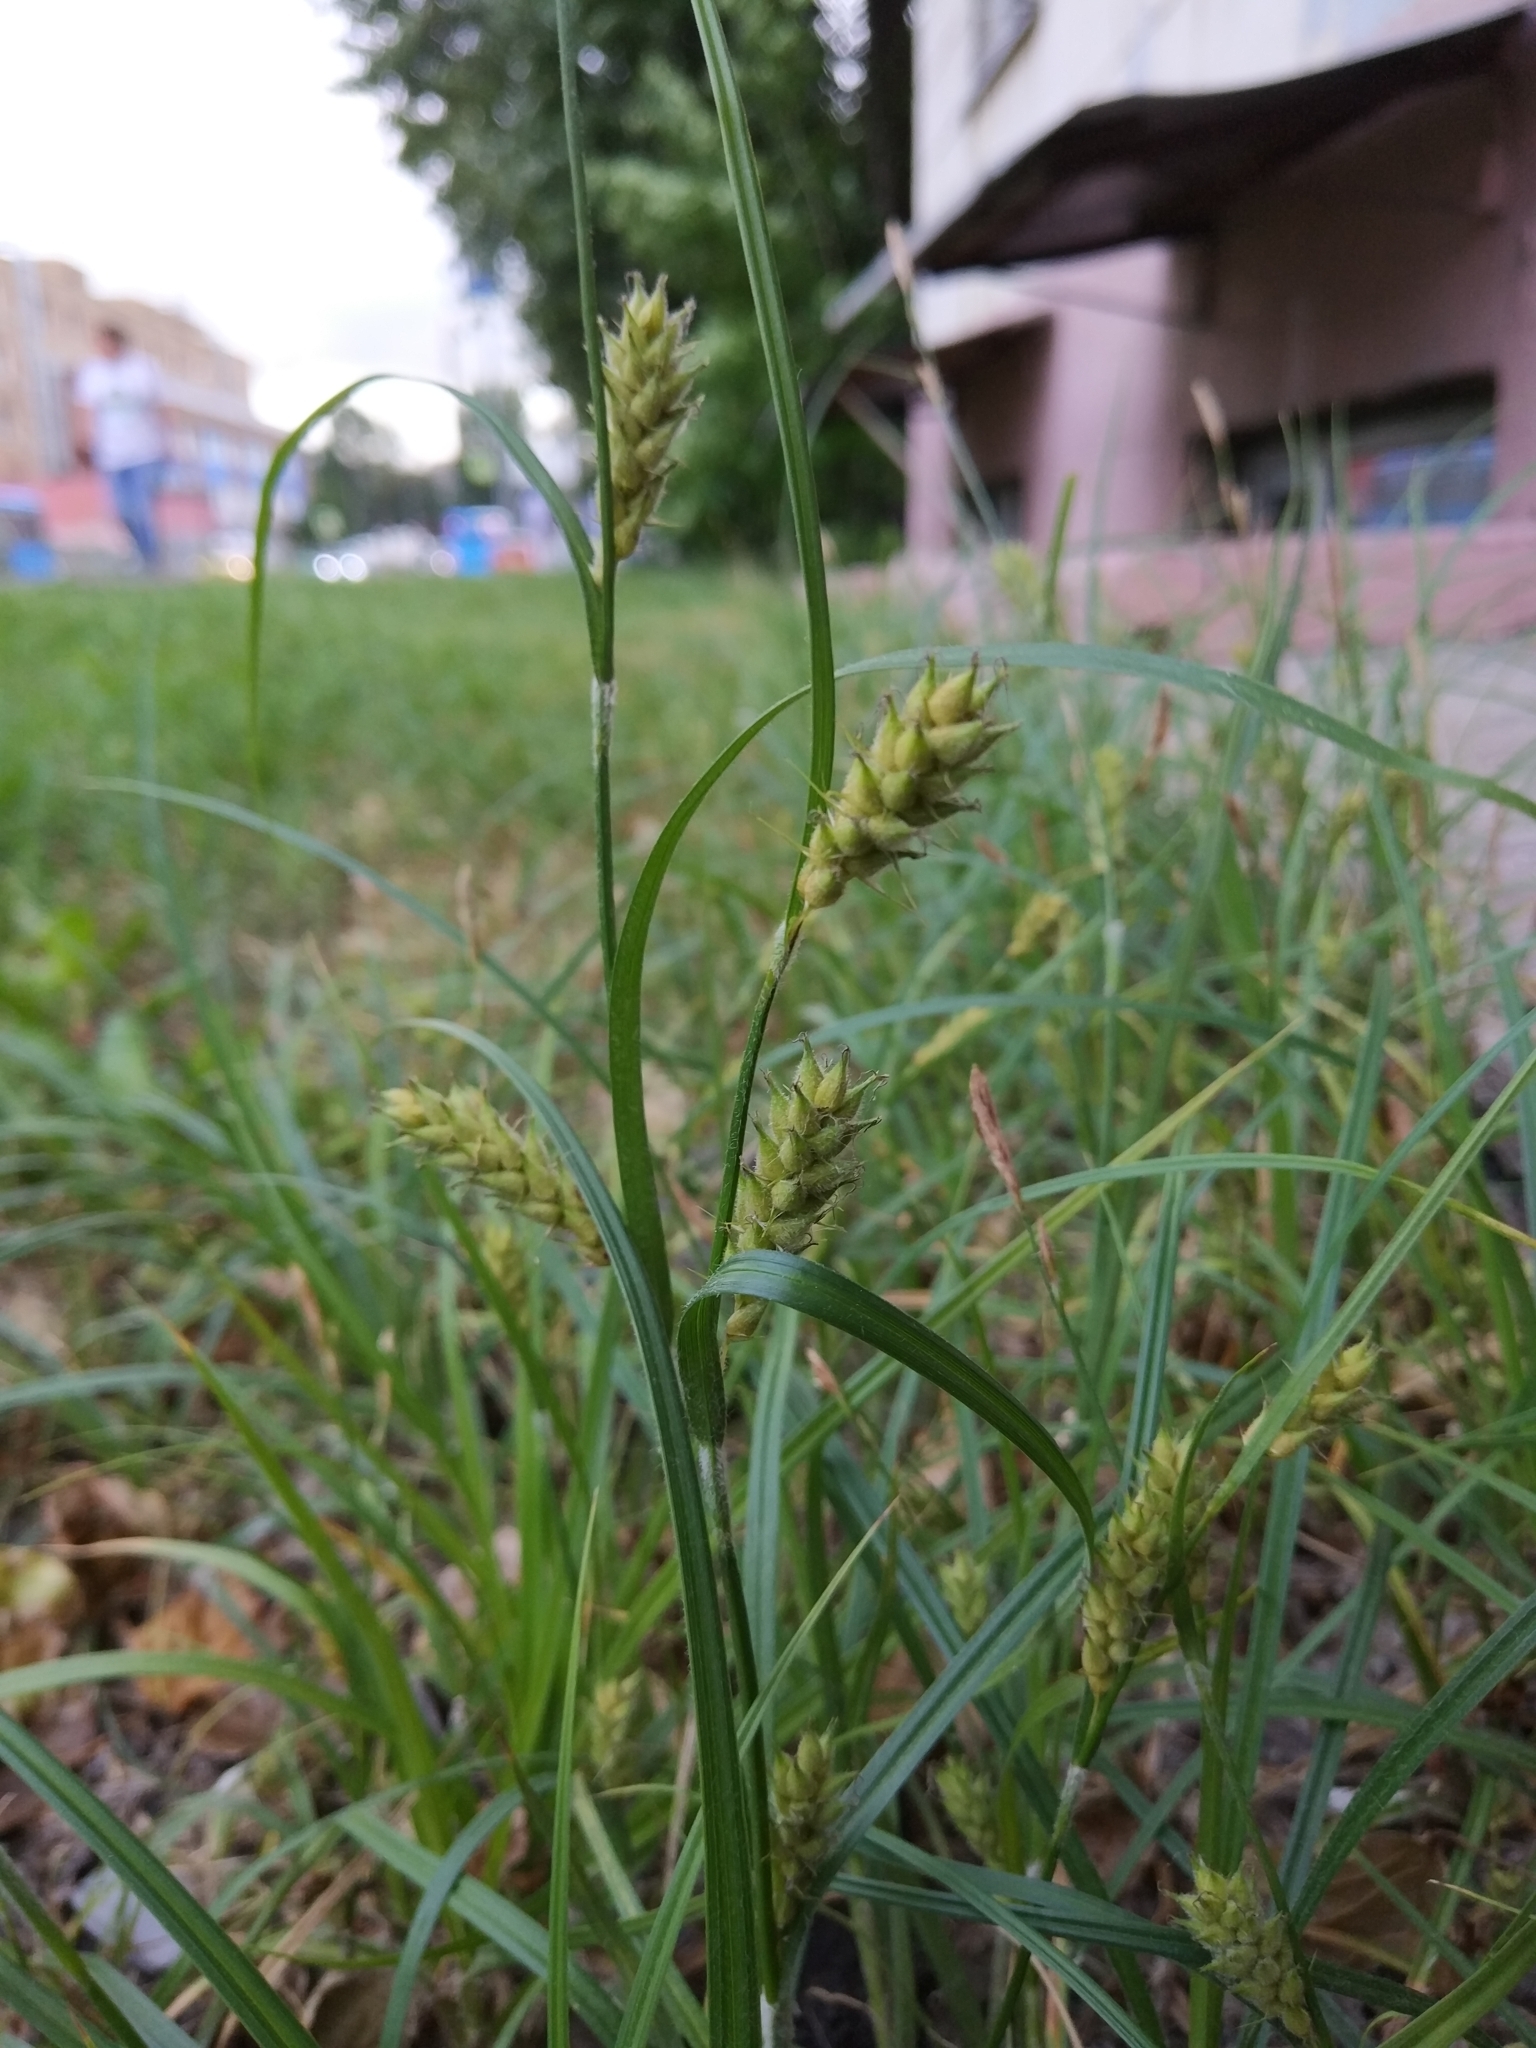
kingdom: Plantae
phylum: Tracheophyta
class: Liliopsida
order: Poales
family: Cyperaceae
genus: Carex
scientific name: Carex hirta
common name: Hairy sedge
